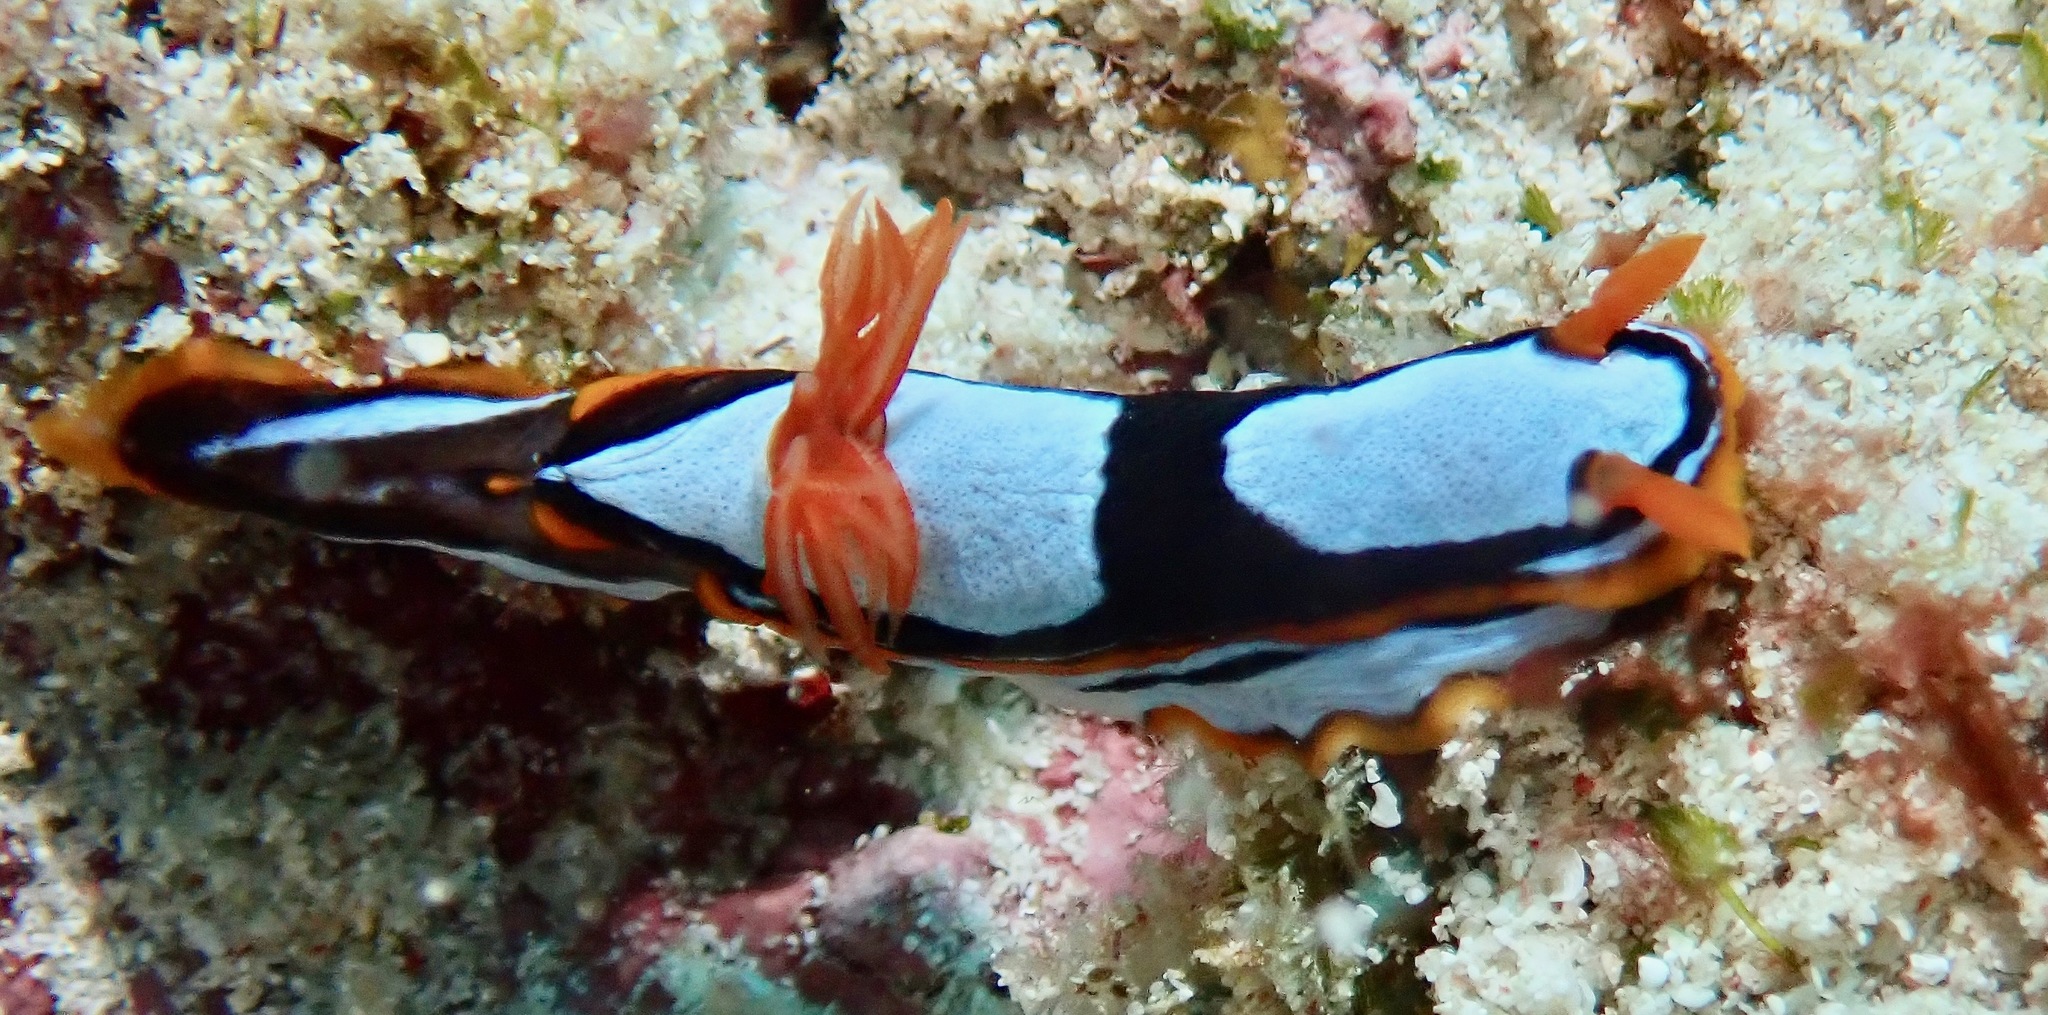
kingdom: Animalia
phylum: Mollusca
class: Gastropoda
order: Nudibranchia
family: Chromodorididae
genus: Chromodoris
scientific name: Chromodoris westraliensis
